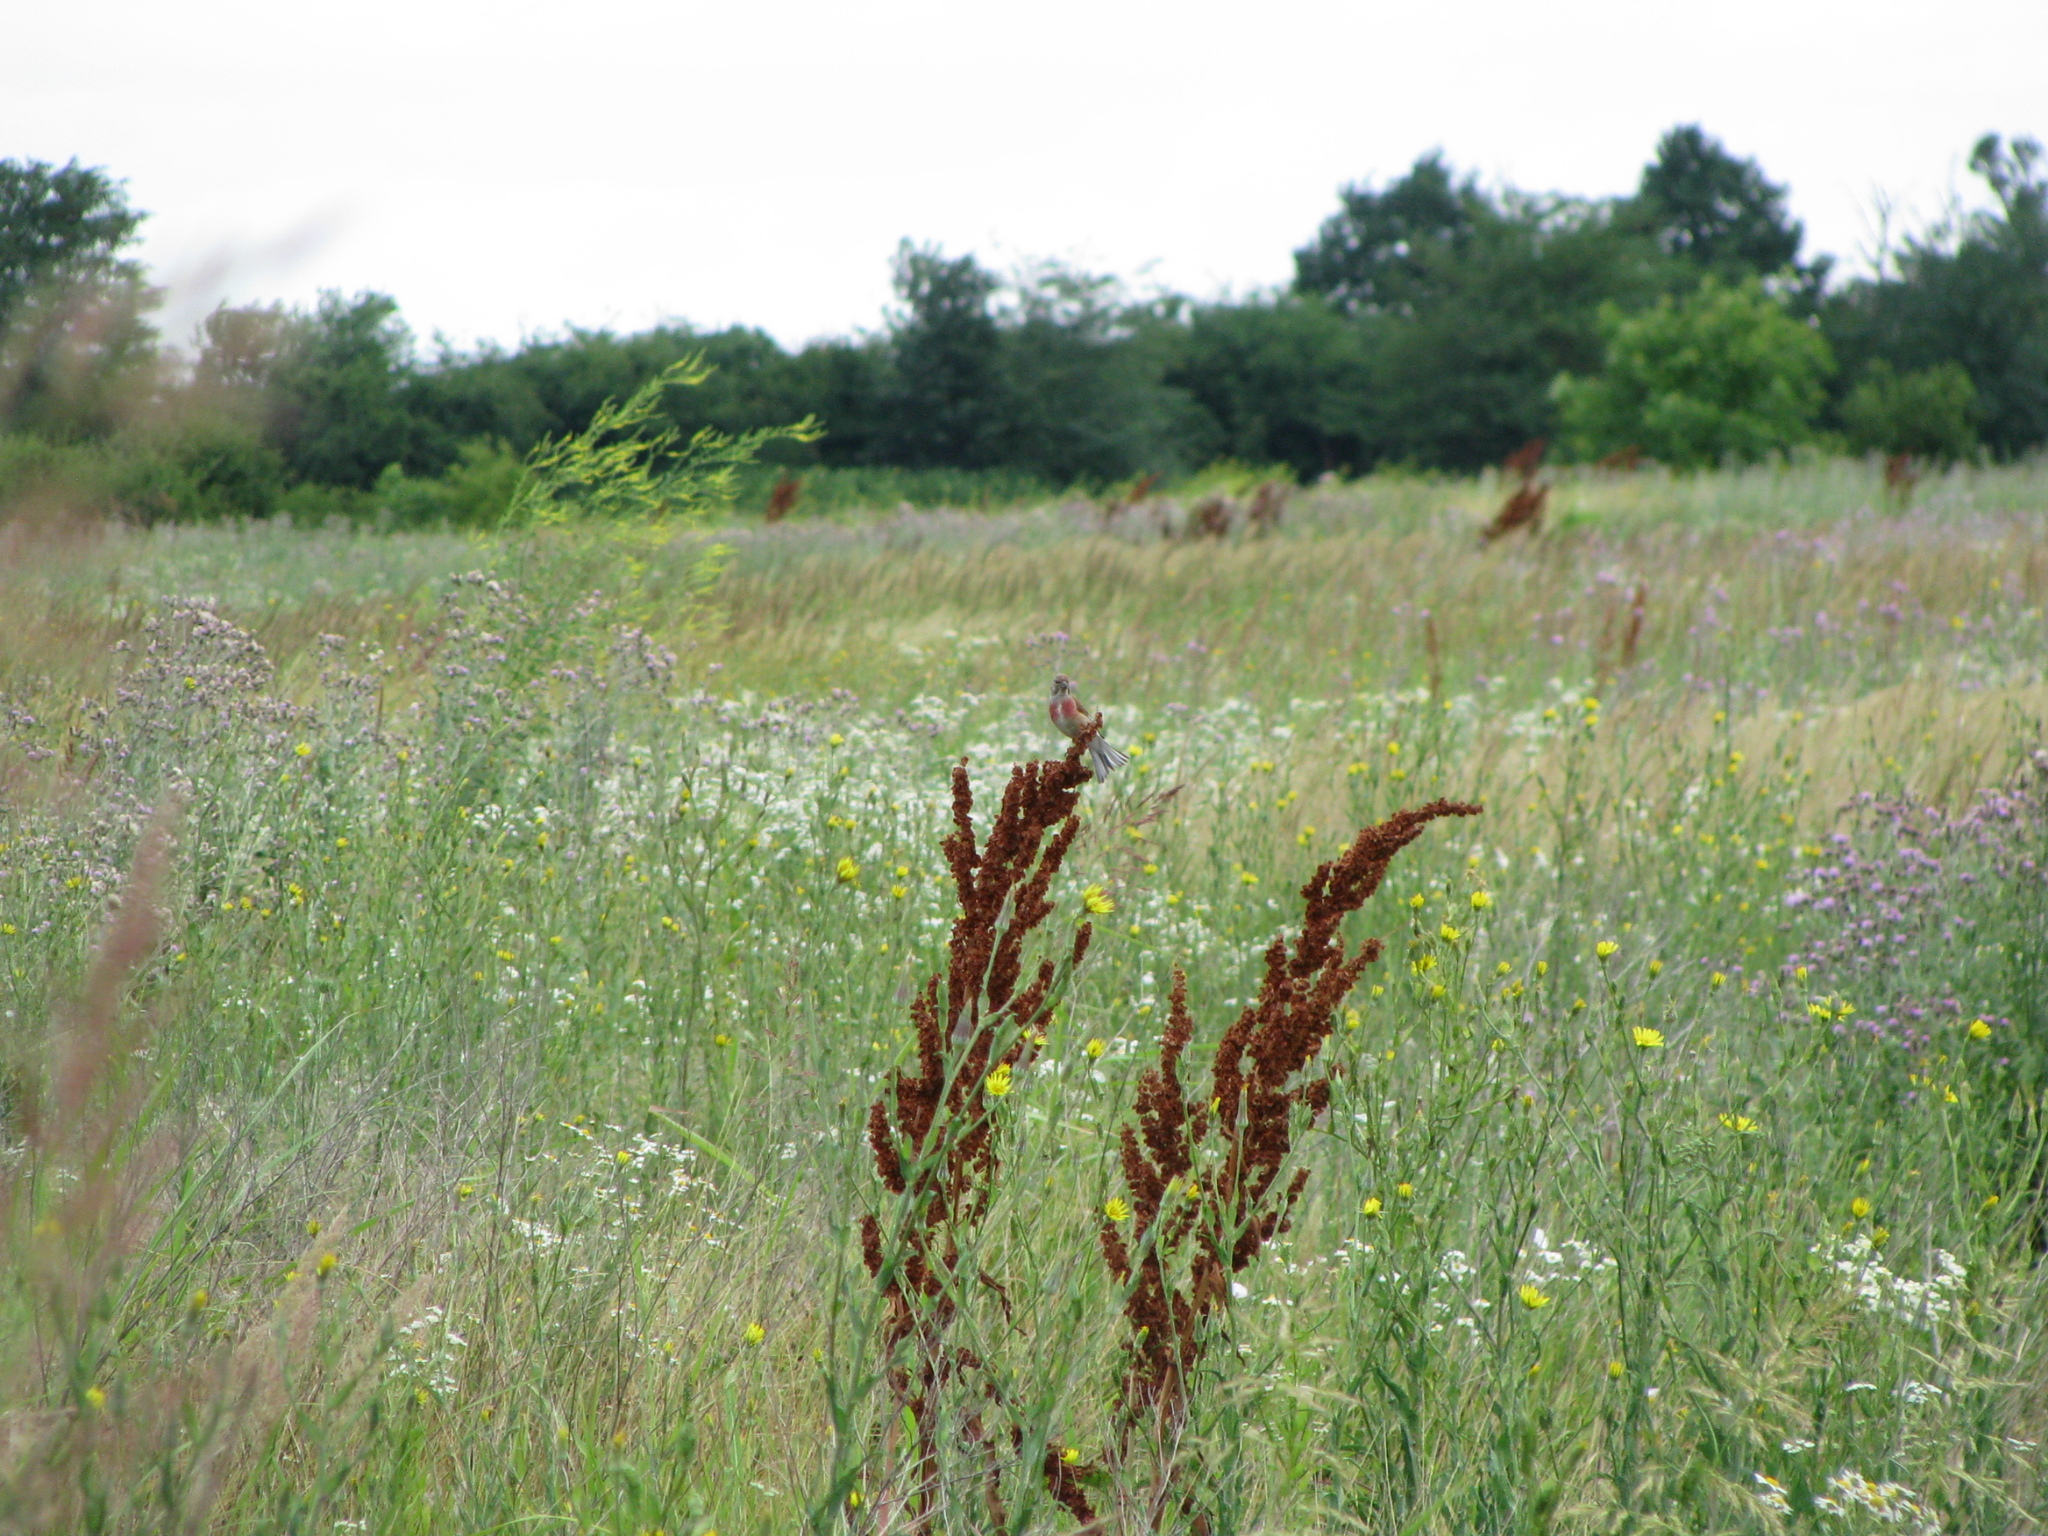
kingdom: Animalia
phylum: Chordata
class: Aves
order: Passeriformes
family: Fringillidae
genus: Linaria
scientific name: Linaria cannabina
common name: Common linnet
